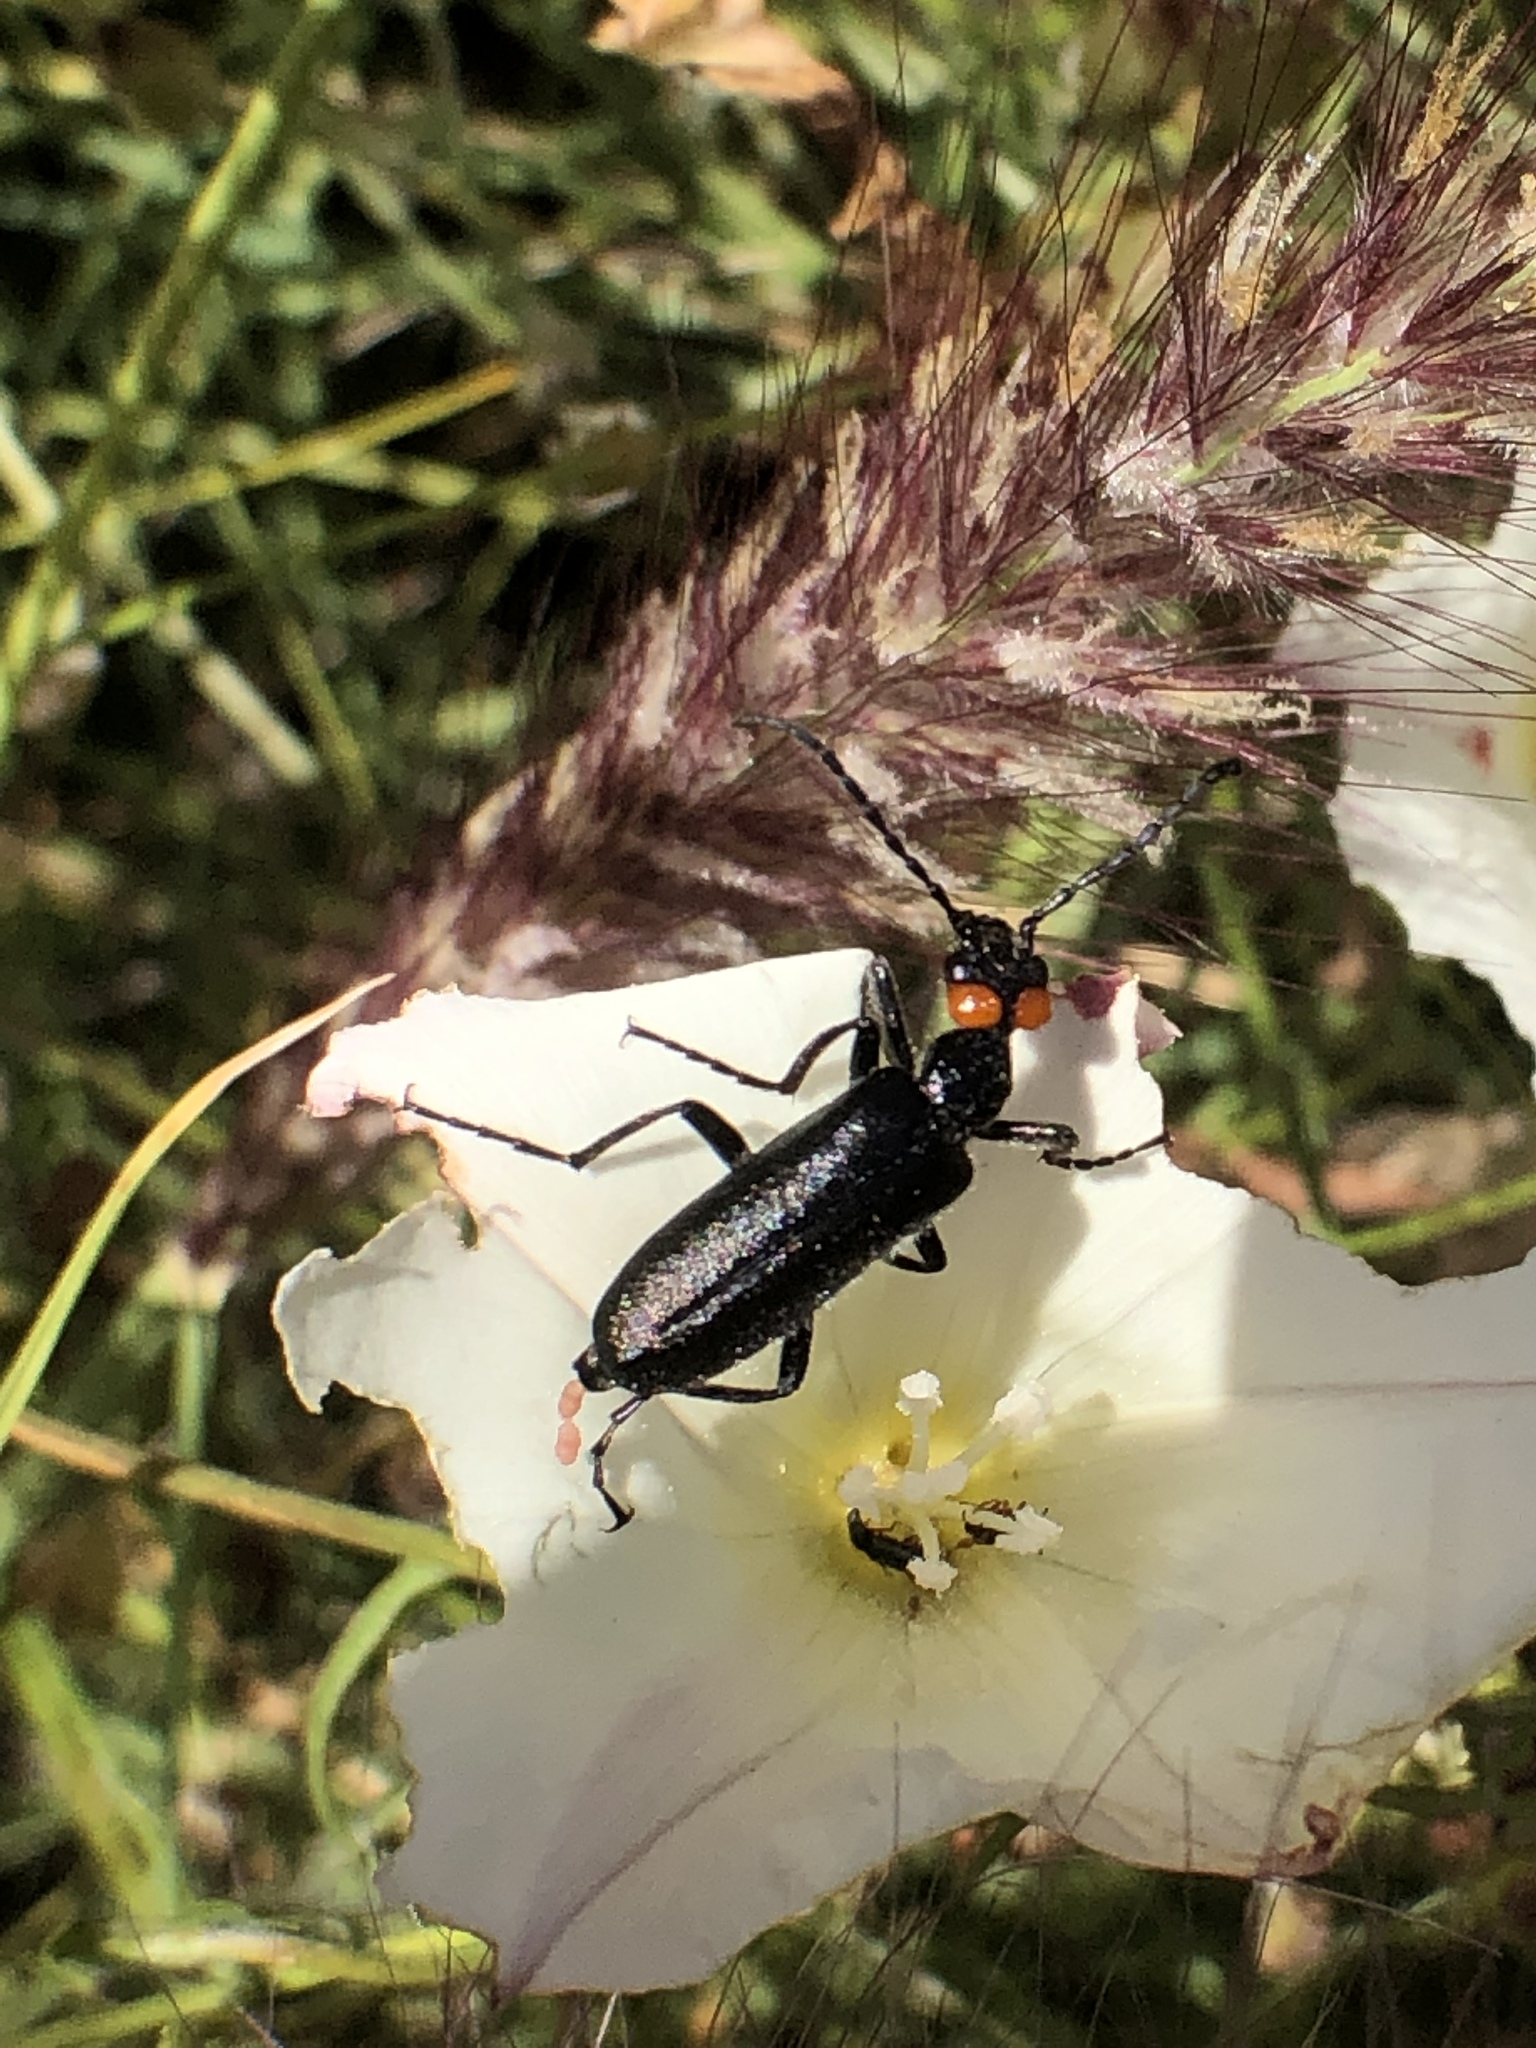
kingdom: Animalia
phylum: Arthropoda
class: Insecta
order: Coleoptera
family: Meloidae
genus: Lytta
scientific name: Lytta auriculata
